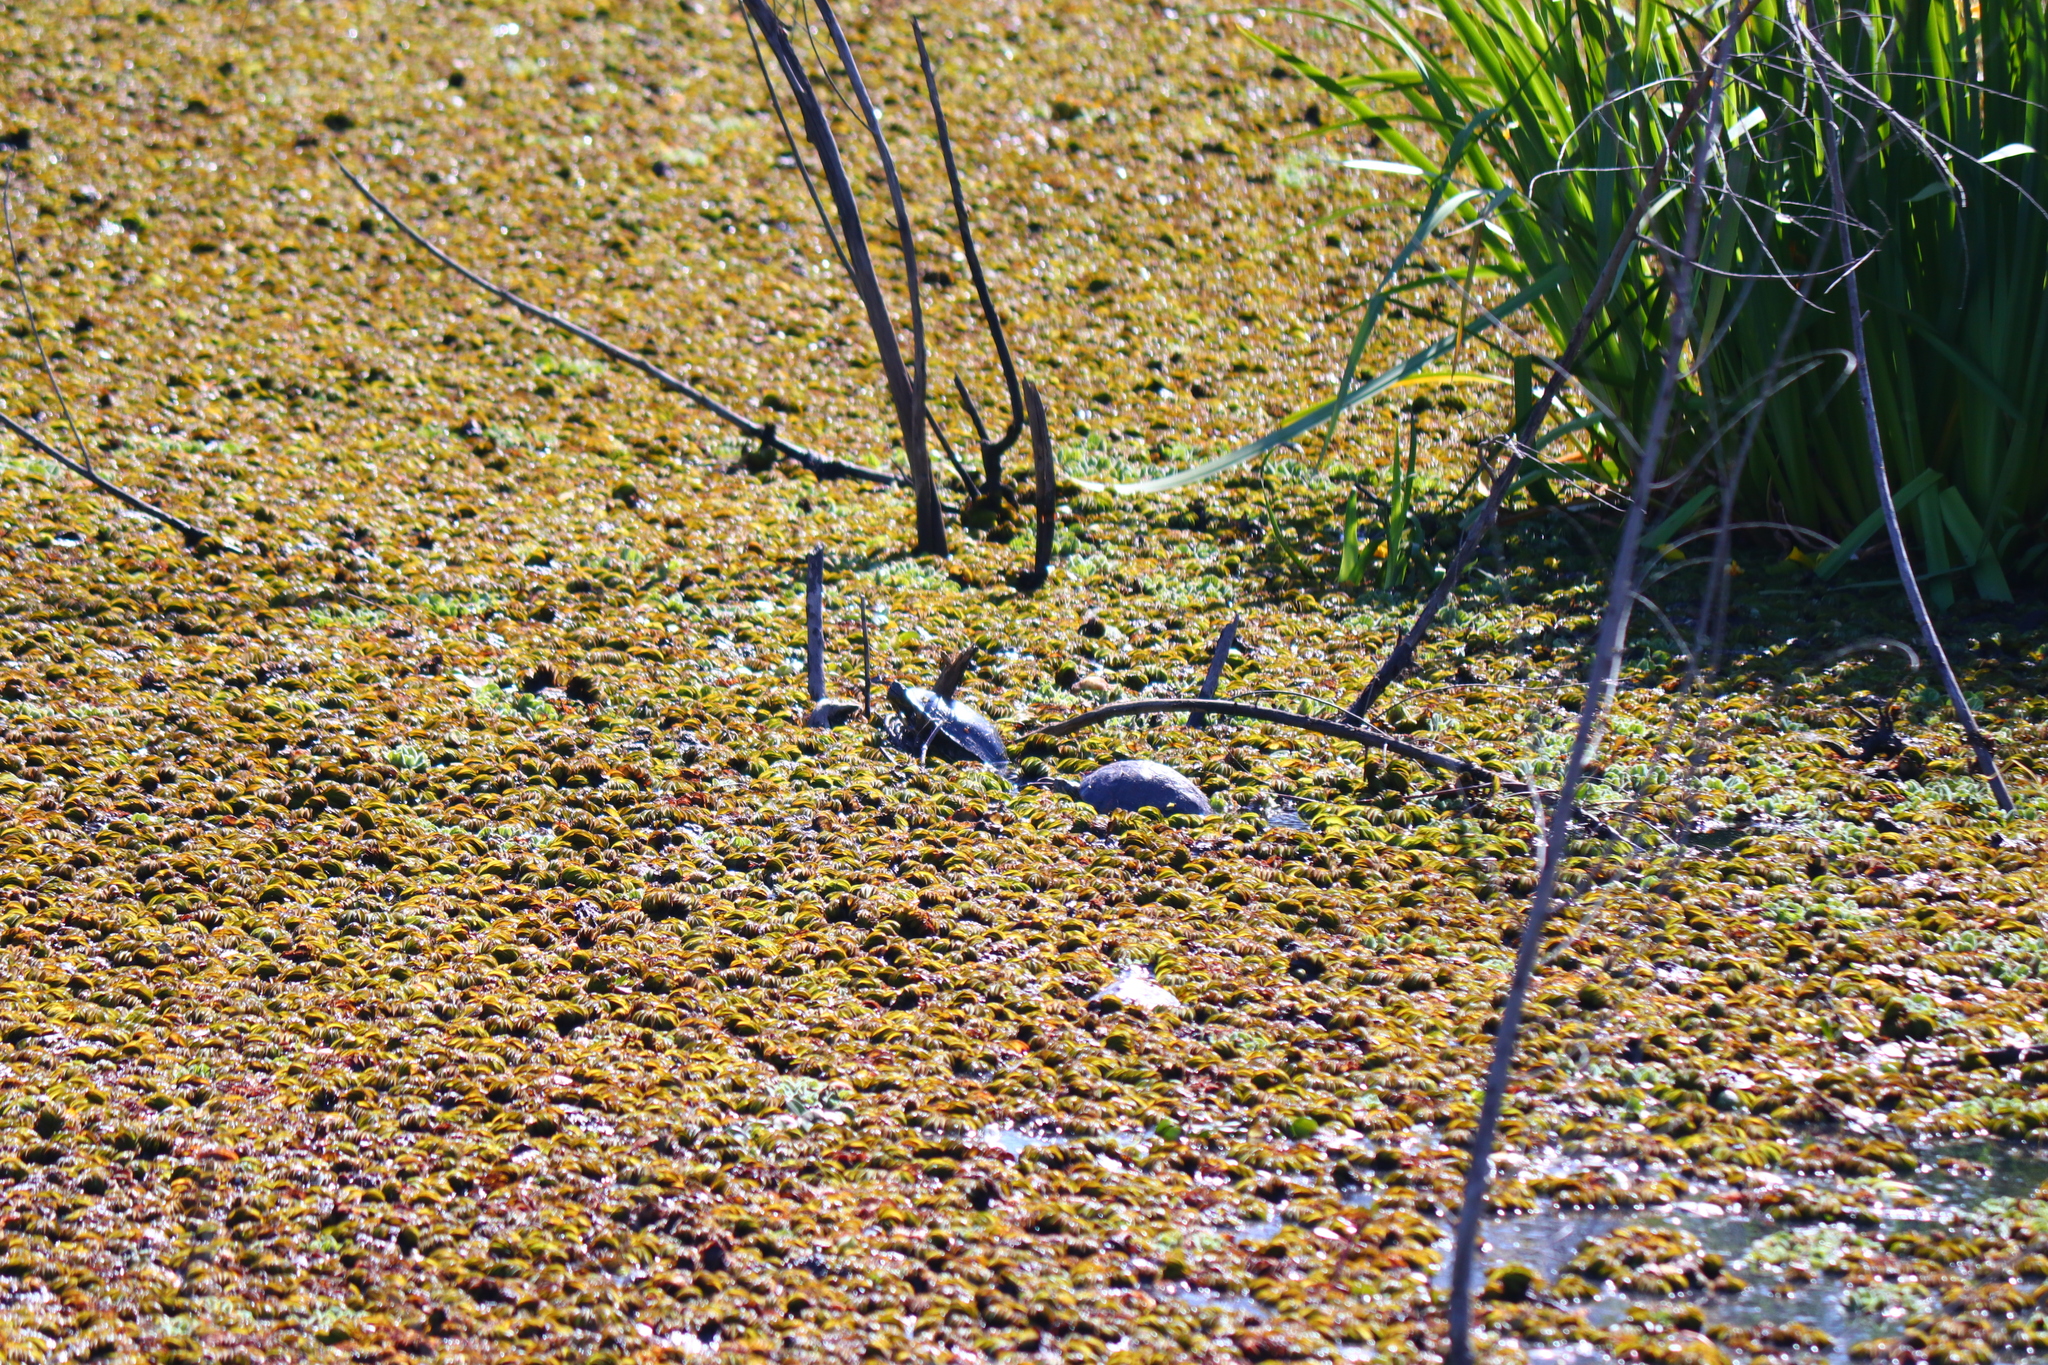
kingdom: Animalia
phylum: Chordata
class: Testudines
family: Emydidae
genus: Trachemys
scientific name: Trachemys scripta
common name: Slider
